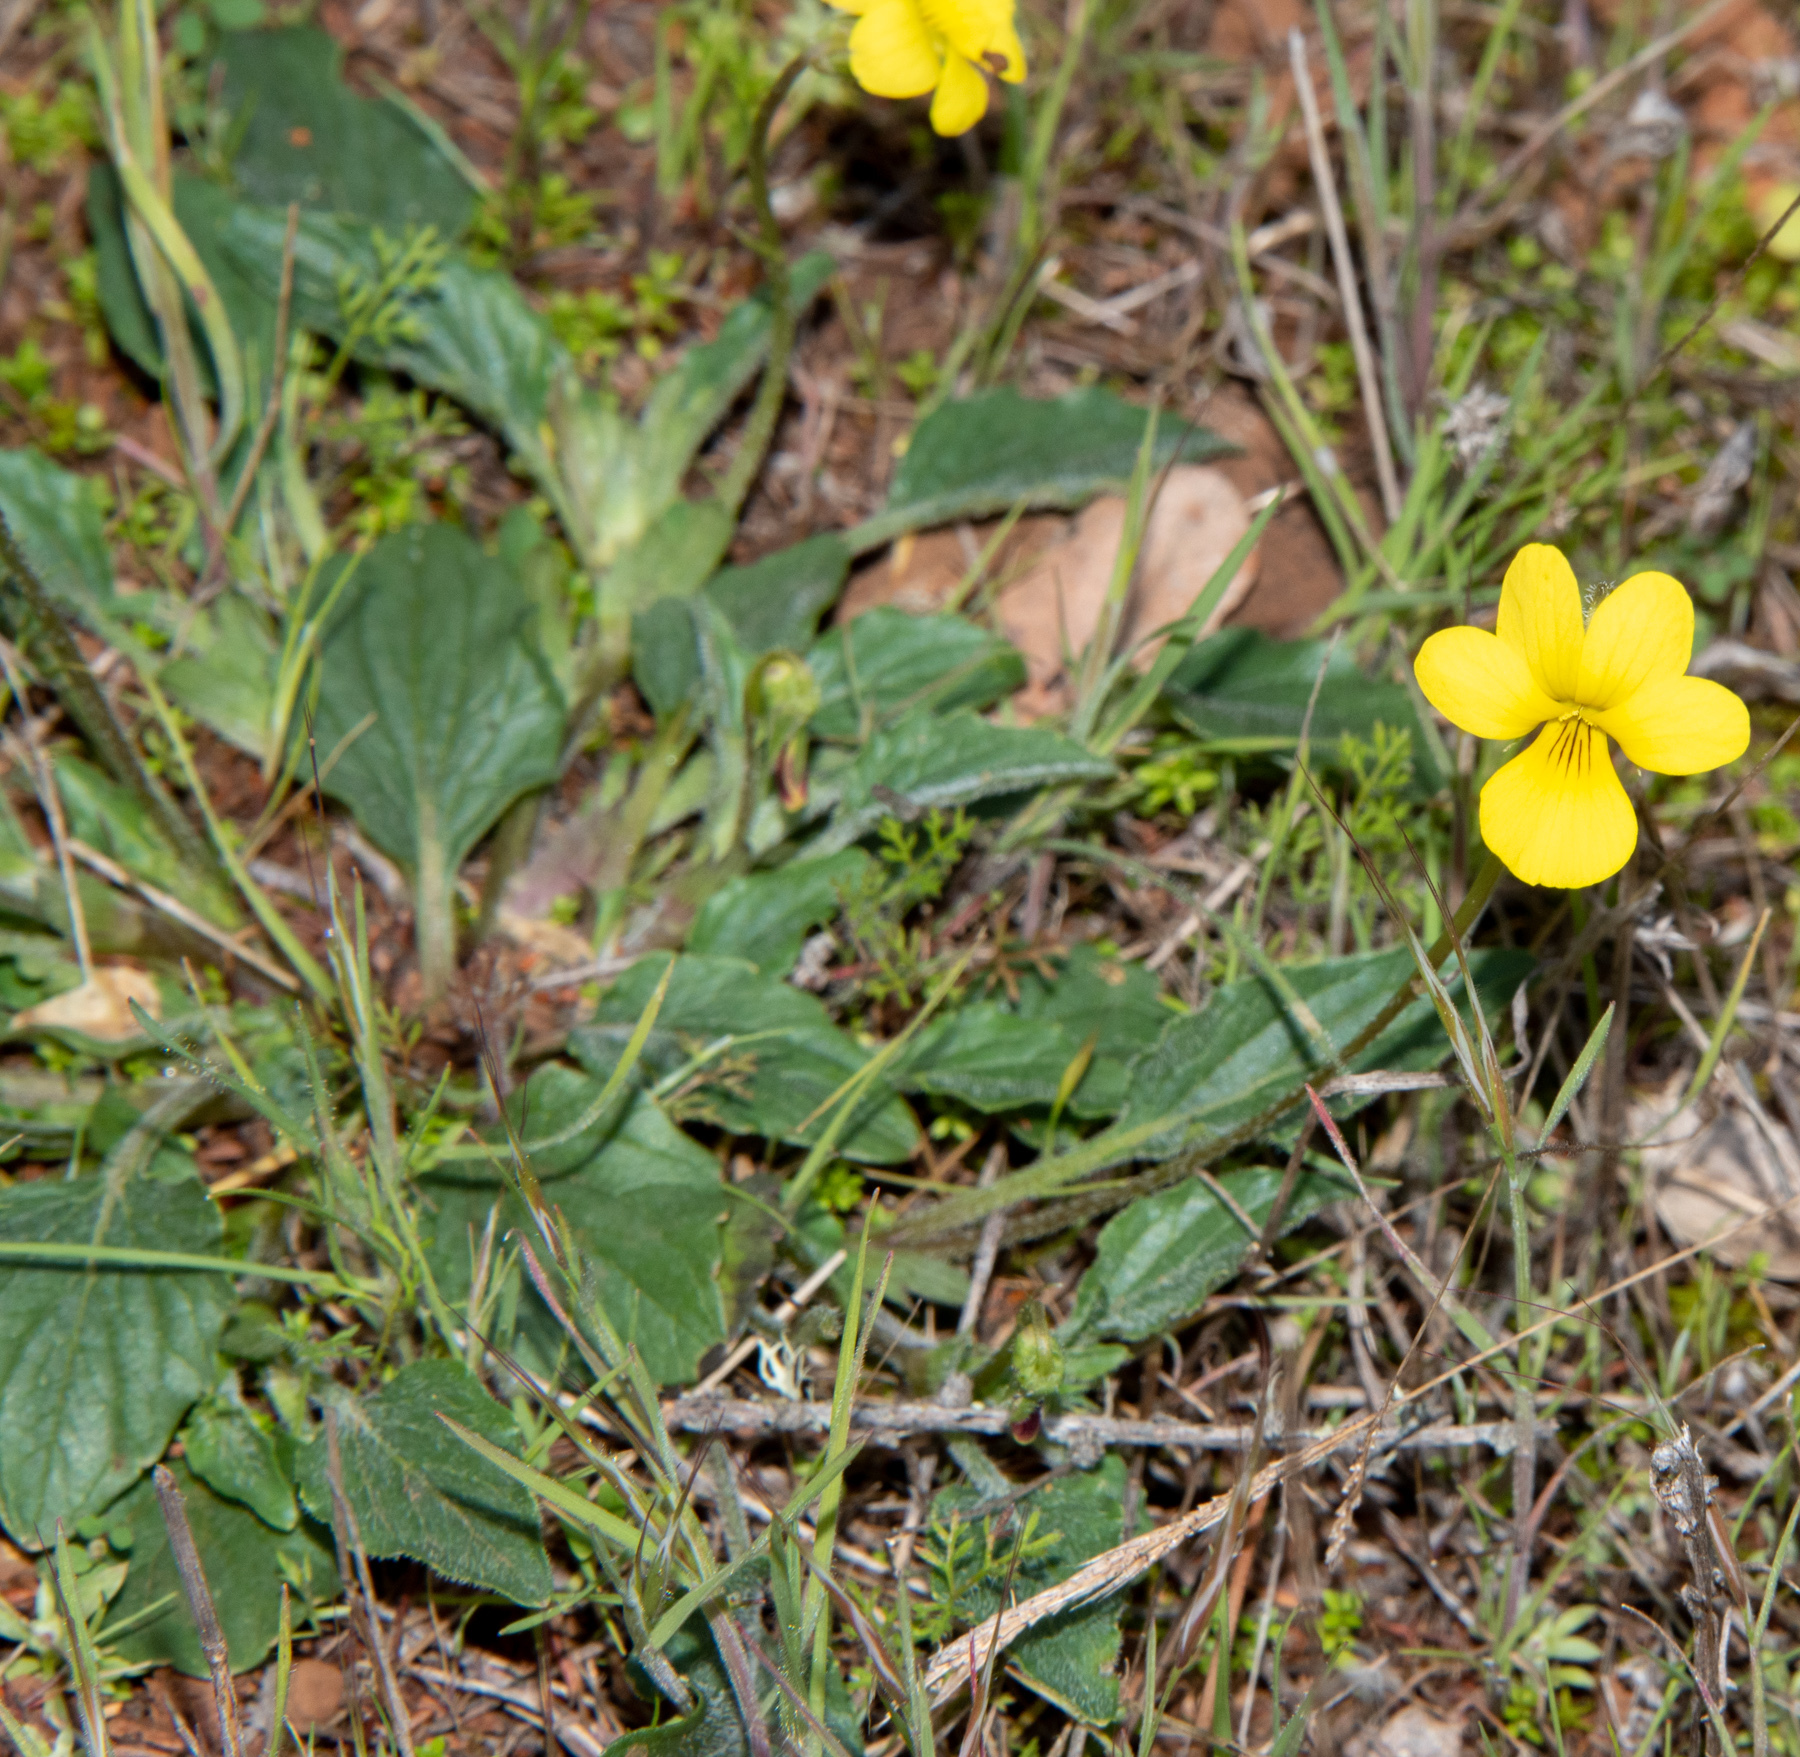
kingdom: Plantae
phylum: Tracheophyta
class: Magnoliopsida
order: Malpighiales
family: Violaceae
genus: Viola
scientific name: Viola purpurea
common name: Pine violet
